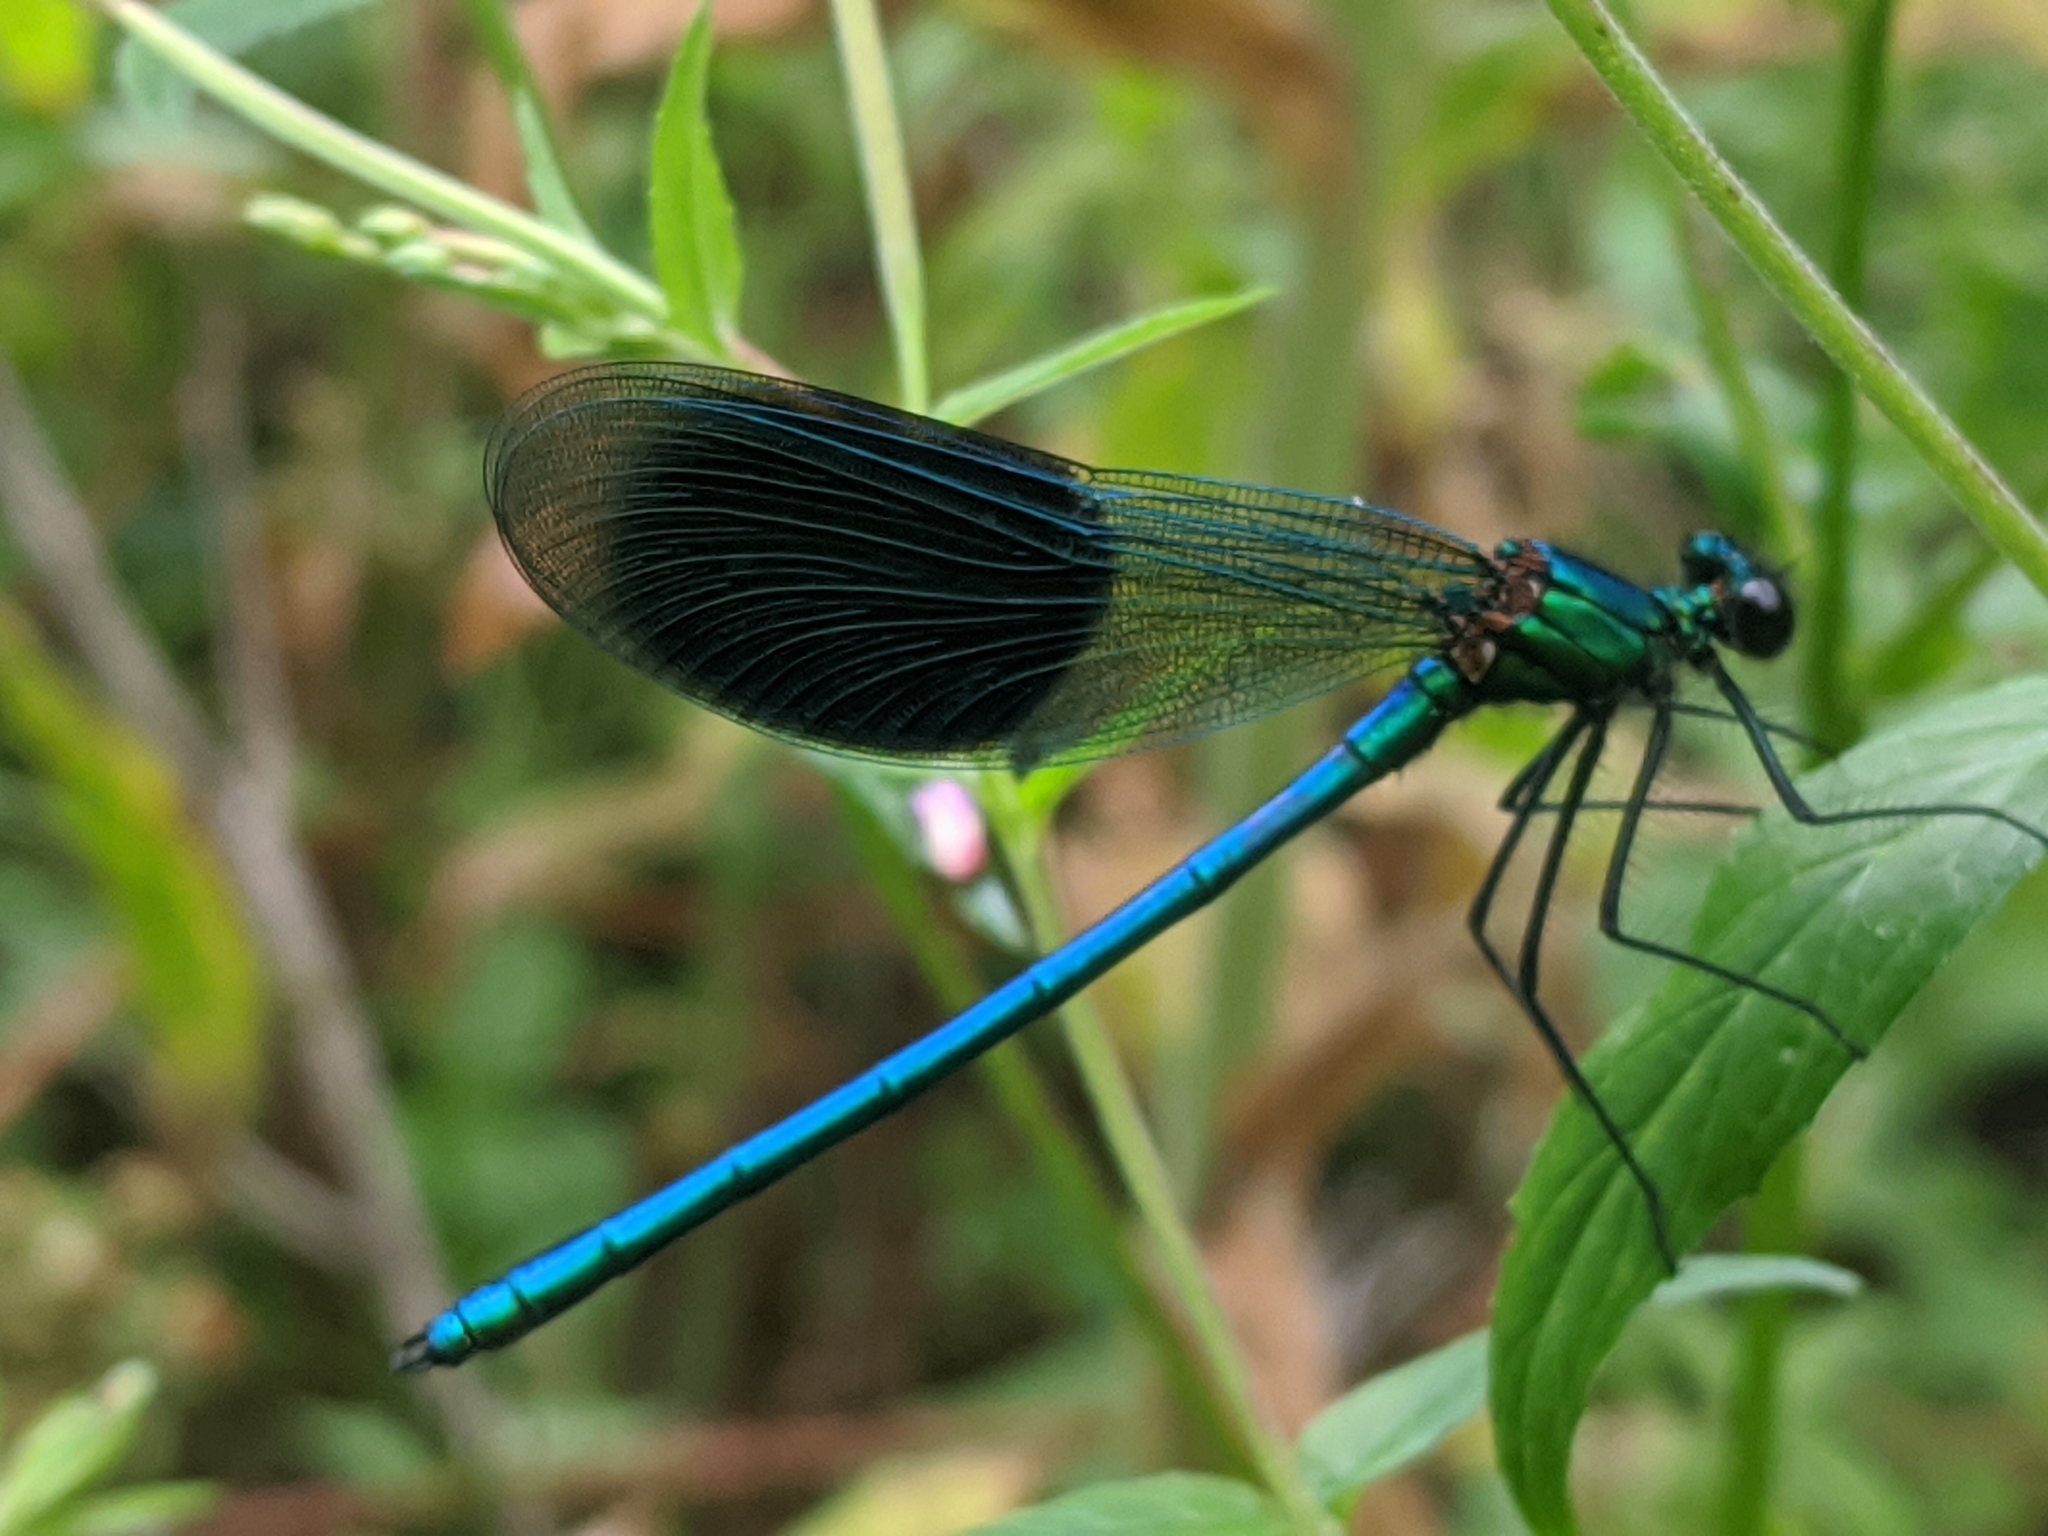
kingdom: Animalia
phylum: Arthropoda
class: Insecta
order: Odonata
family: Calopterygidae
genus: Calopteryx
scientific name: Calopteryx splendens
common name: Banded demoiselle
